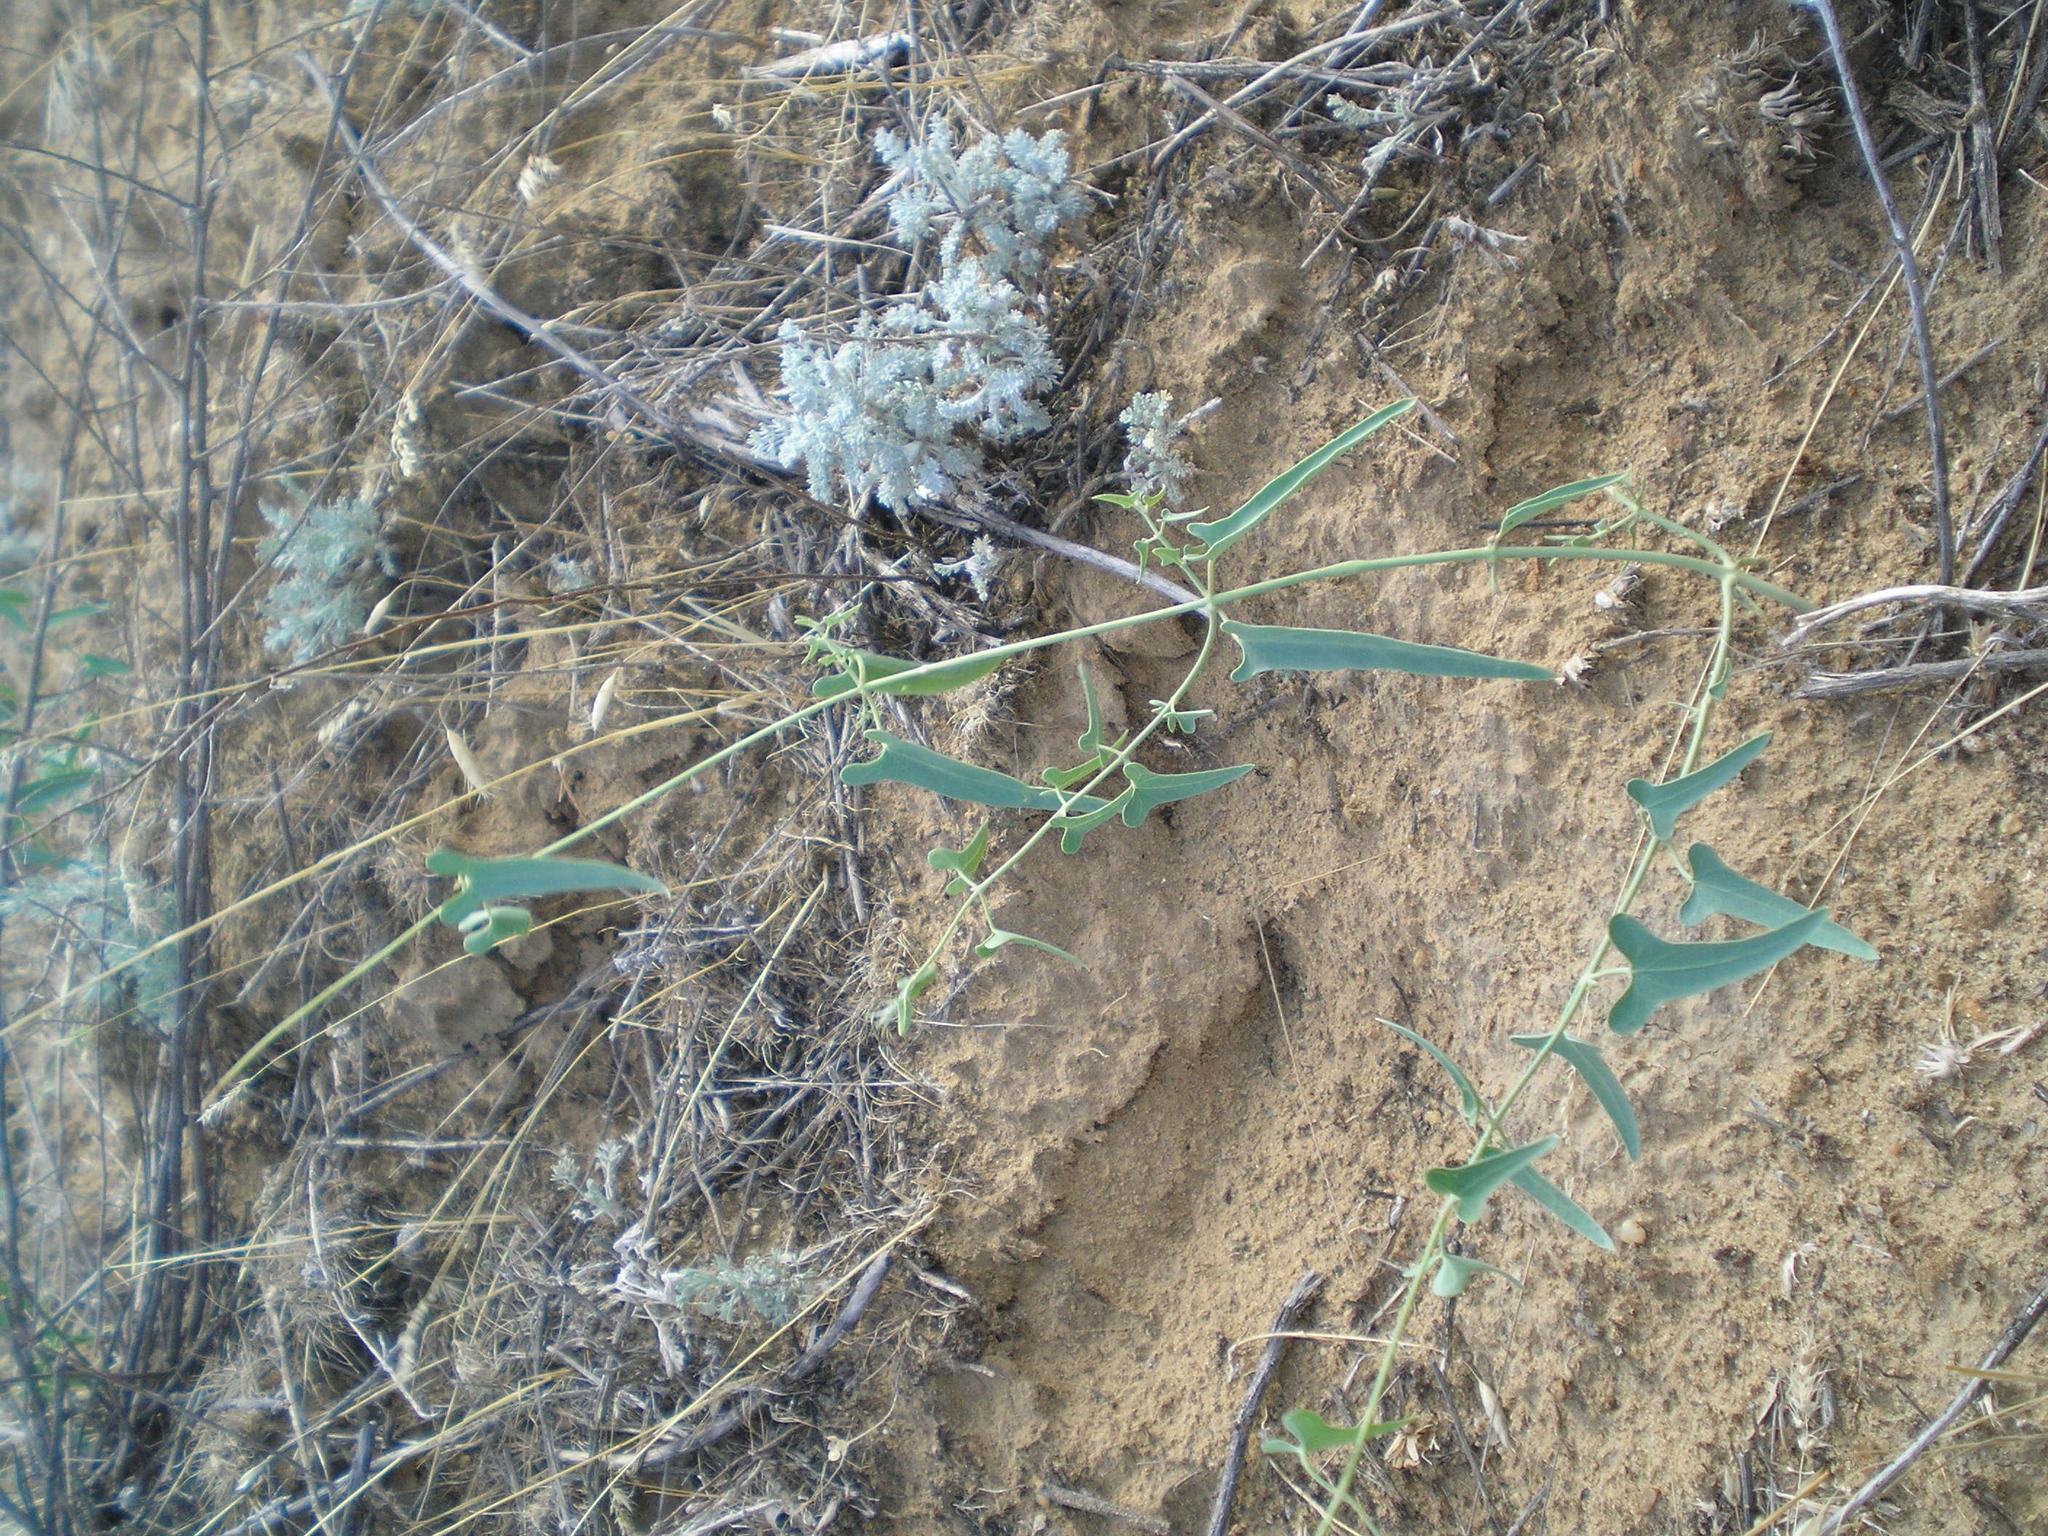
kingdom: Plantae
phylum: Tracheophyta
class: Magnoliopsida
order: Gentianales
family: Apocynaceae
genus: Cynanchum
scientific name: Cynanchum acutum
